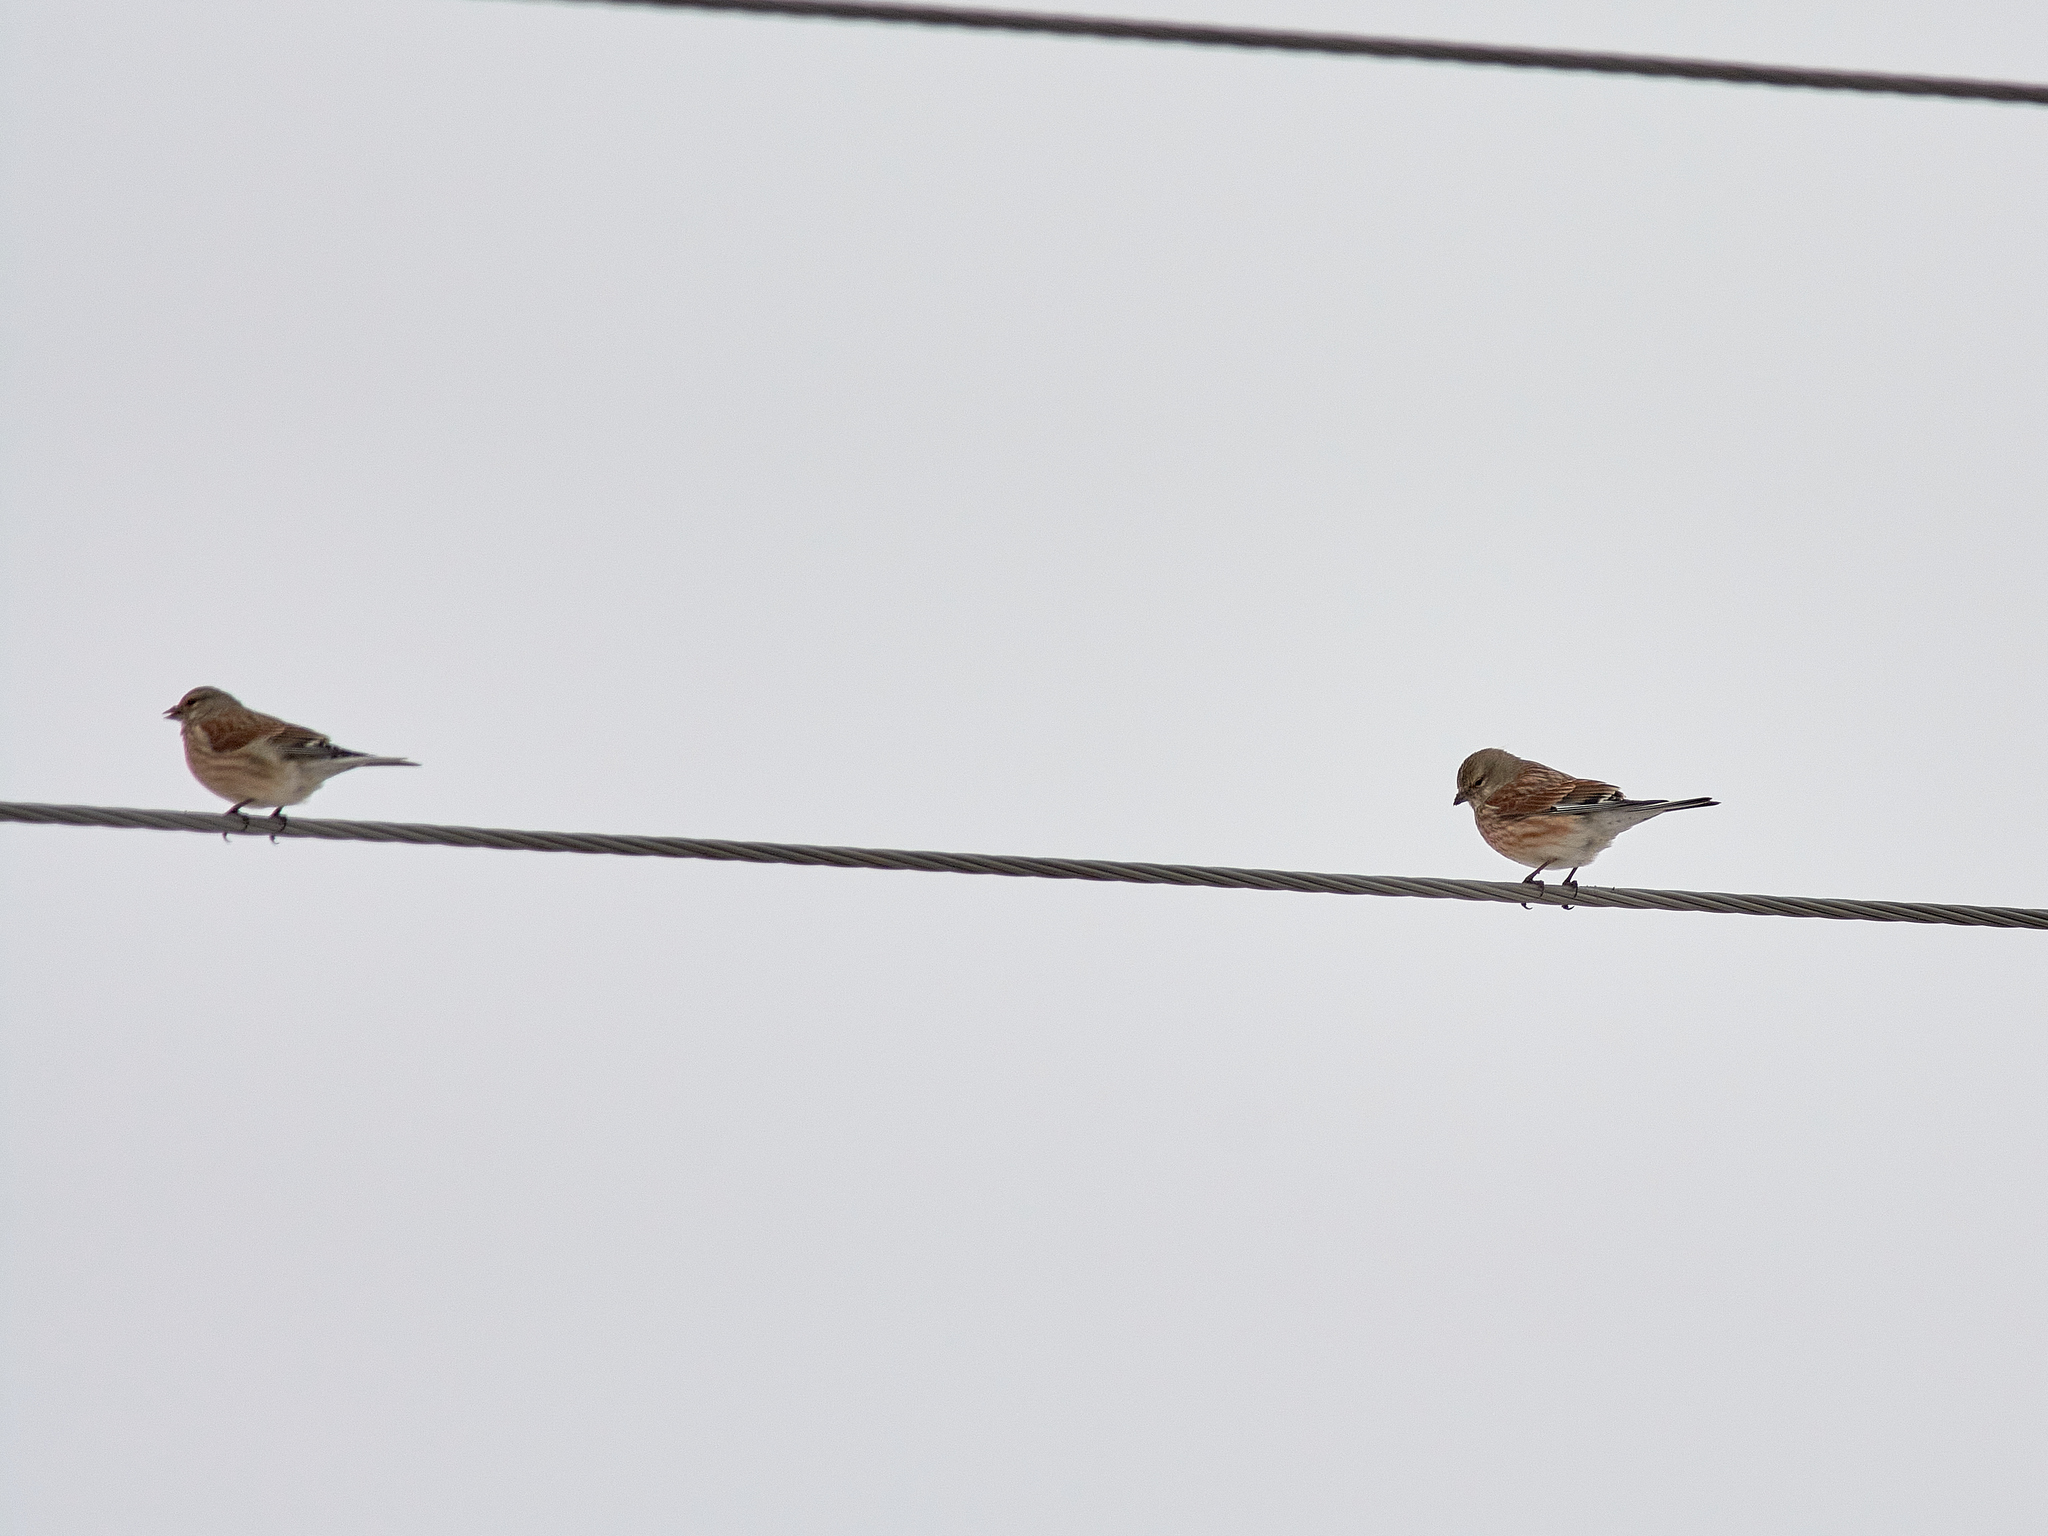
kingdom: Animalia
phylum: Chordata
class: Aves
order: Passeriformes
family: Fringillidae
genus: Linaria
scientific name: Linaria cannabina
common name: Common linnet
